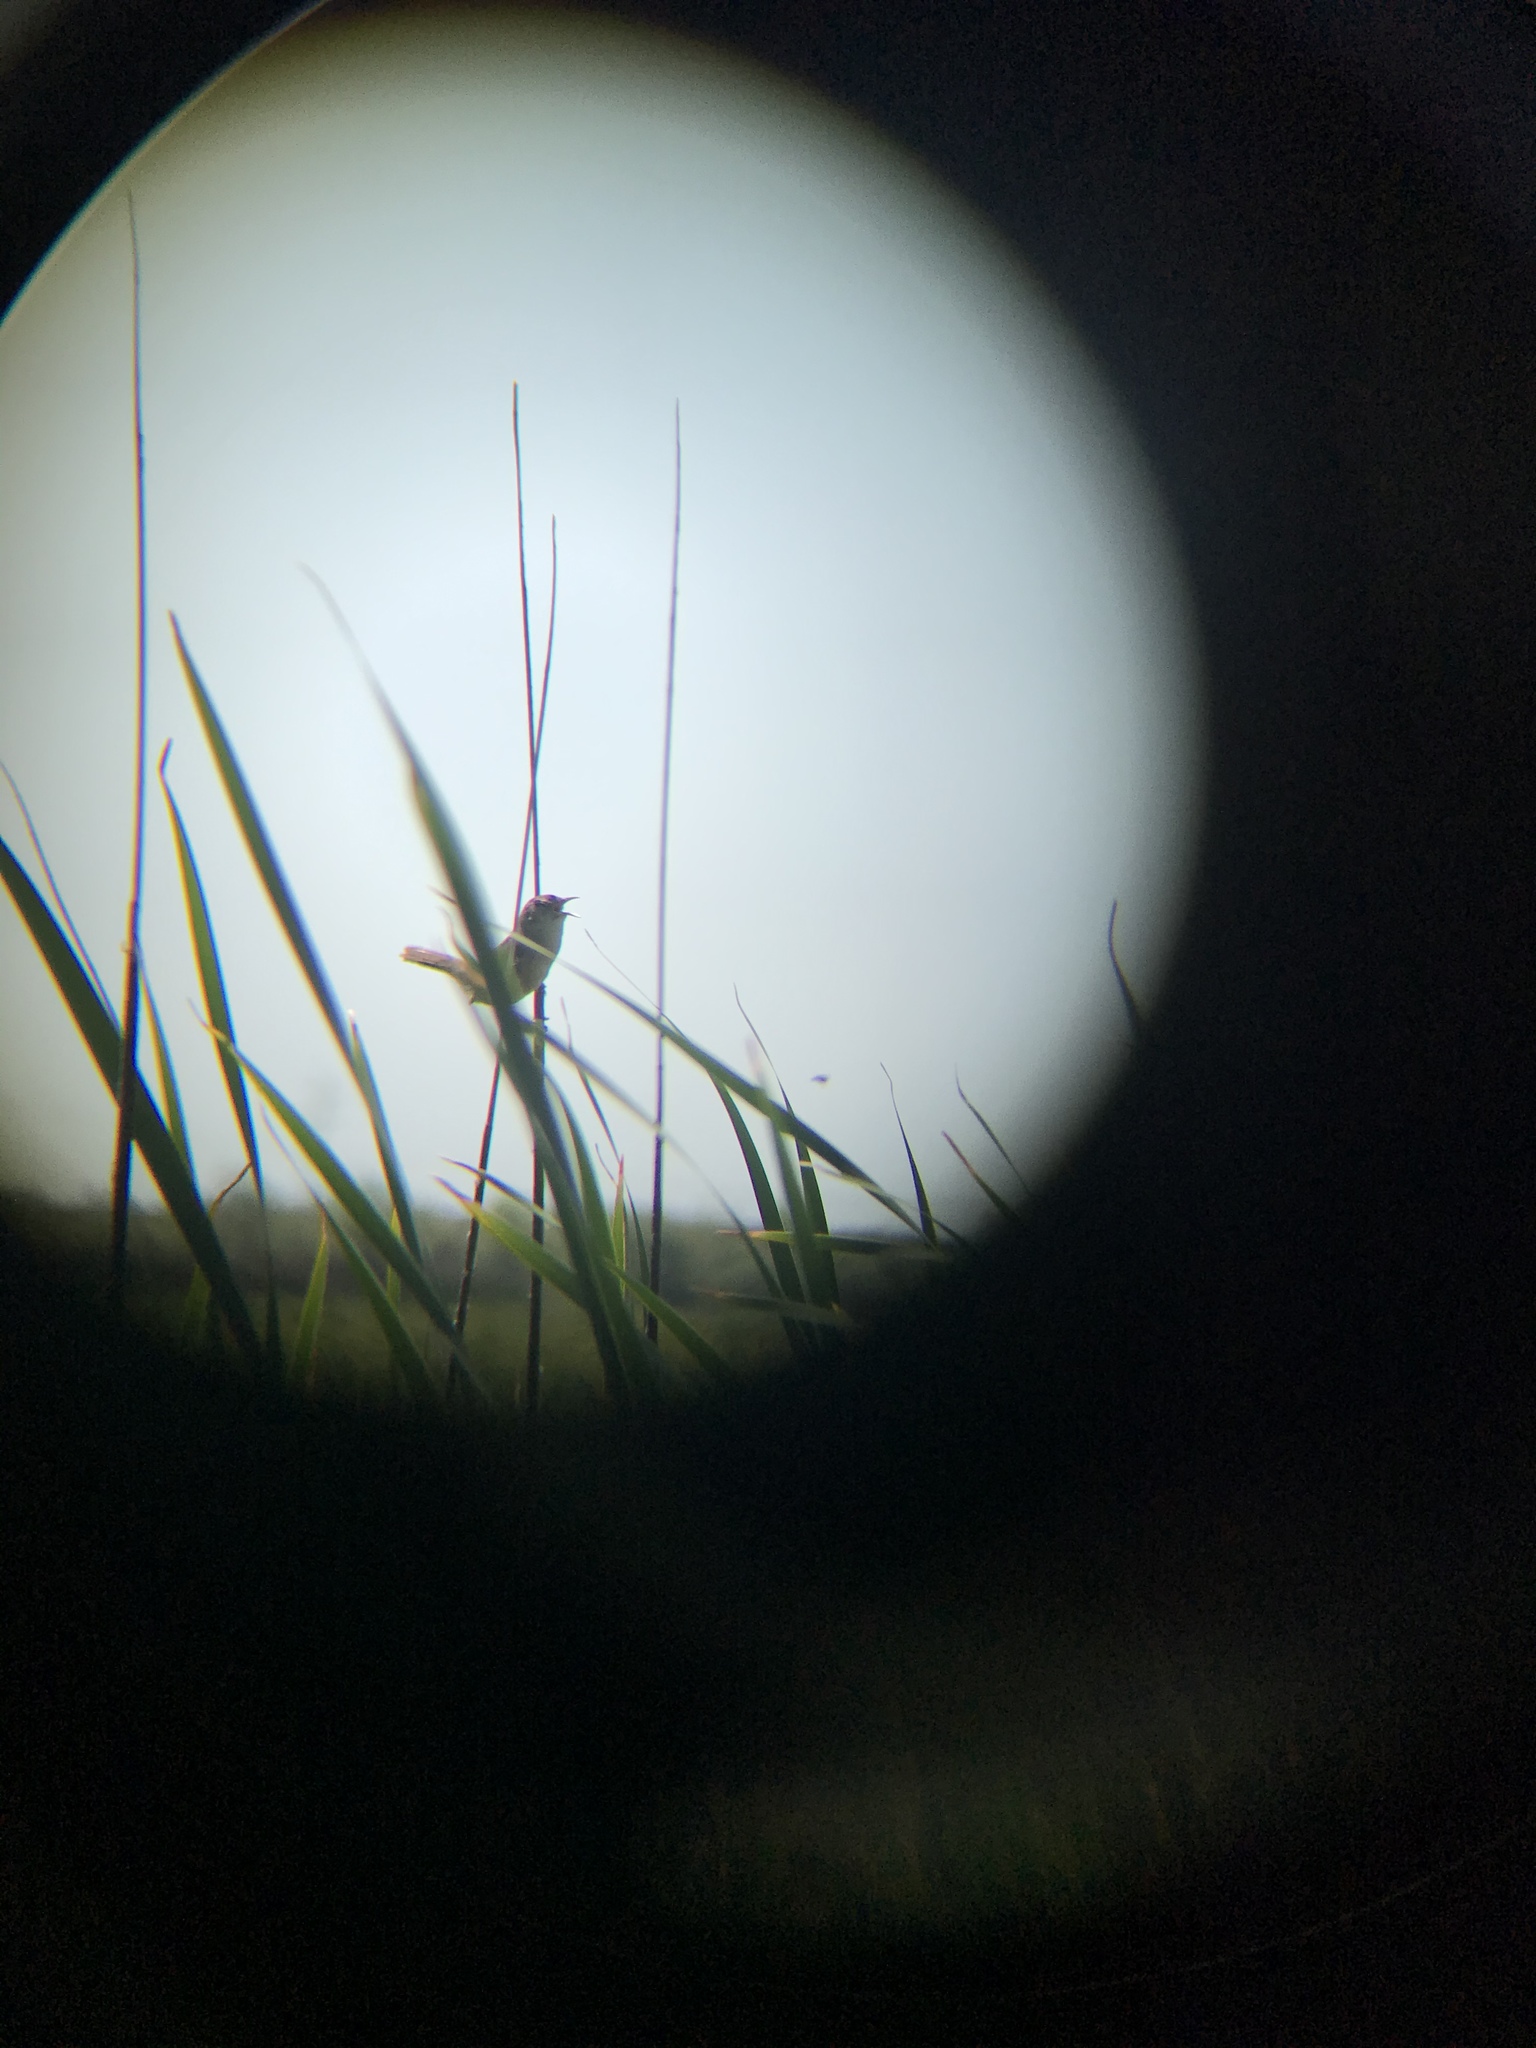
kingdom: Animalia
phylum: Chordata
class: Aves
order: Passeriformes
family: Troglodytidae
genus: Cistothorus
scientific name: Cistothorus palustris
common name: Marsh wren
